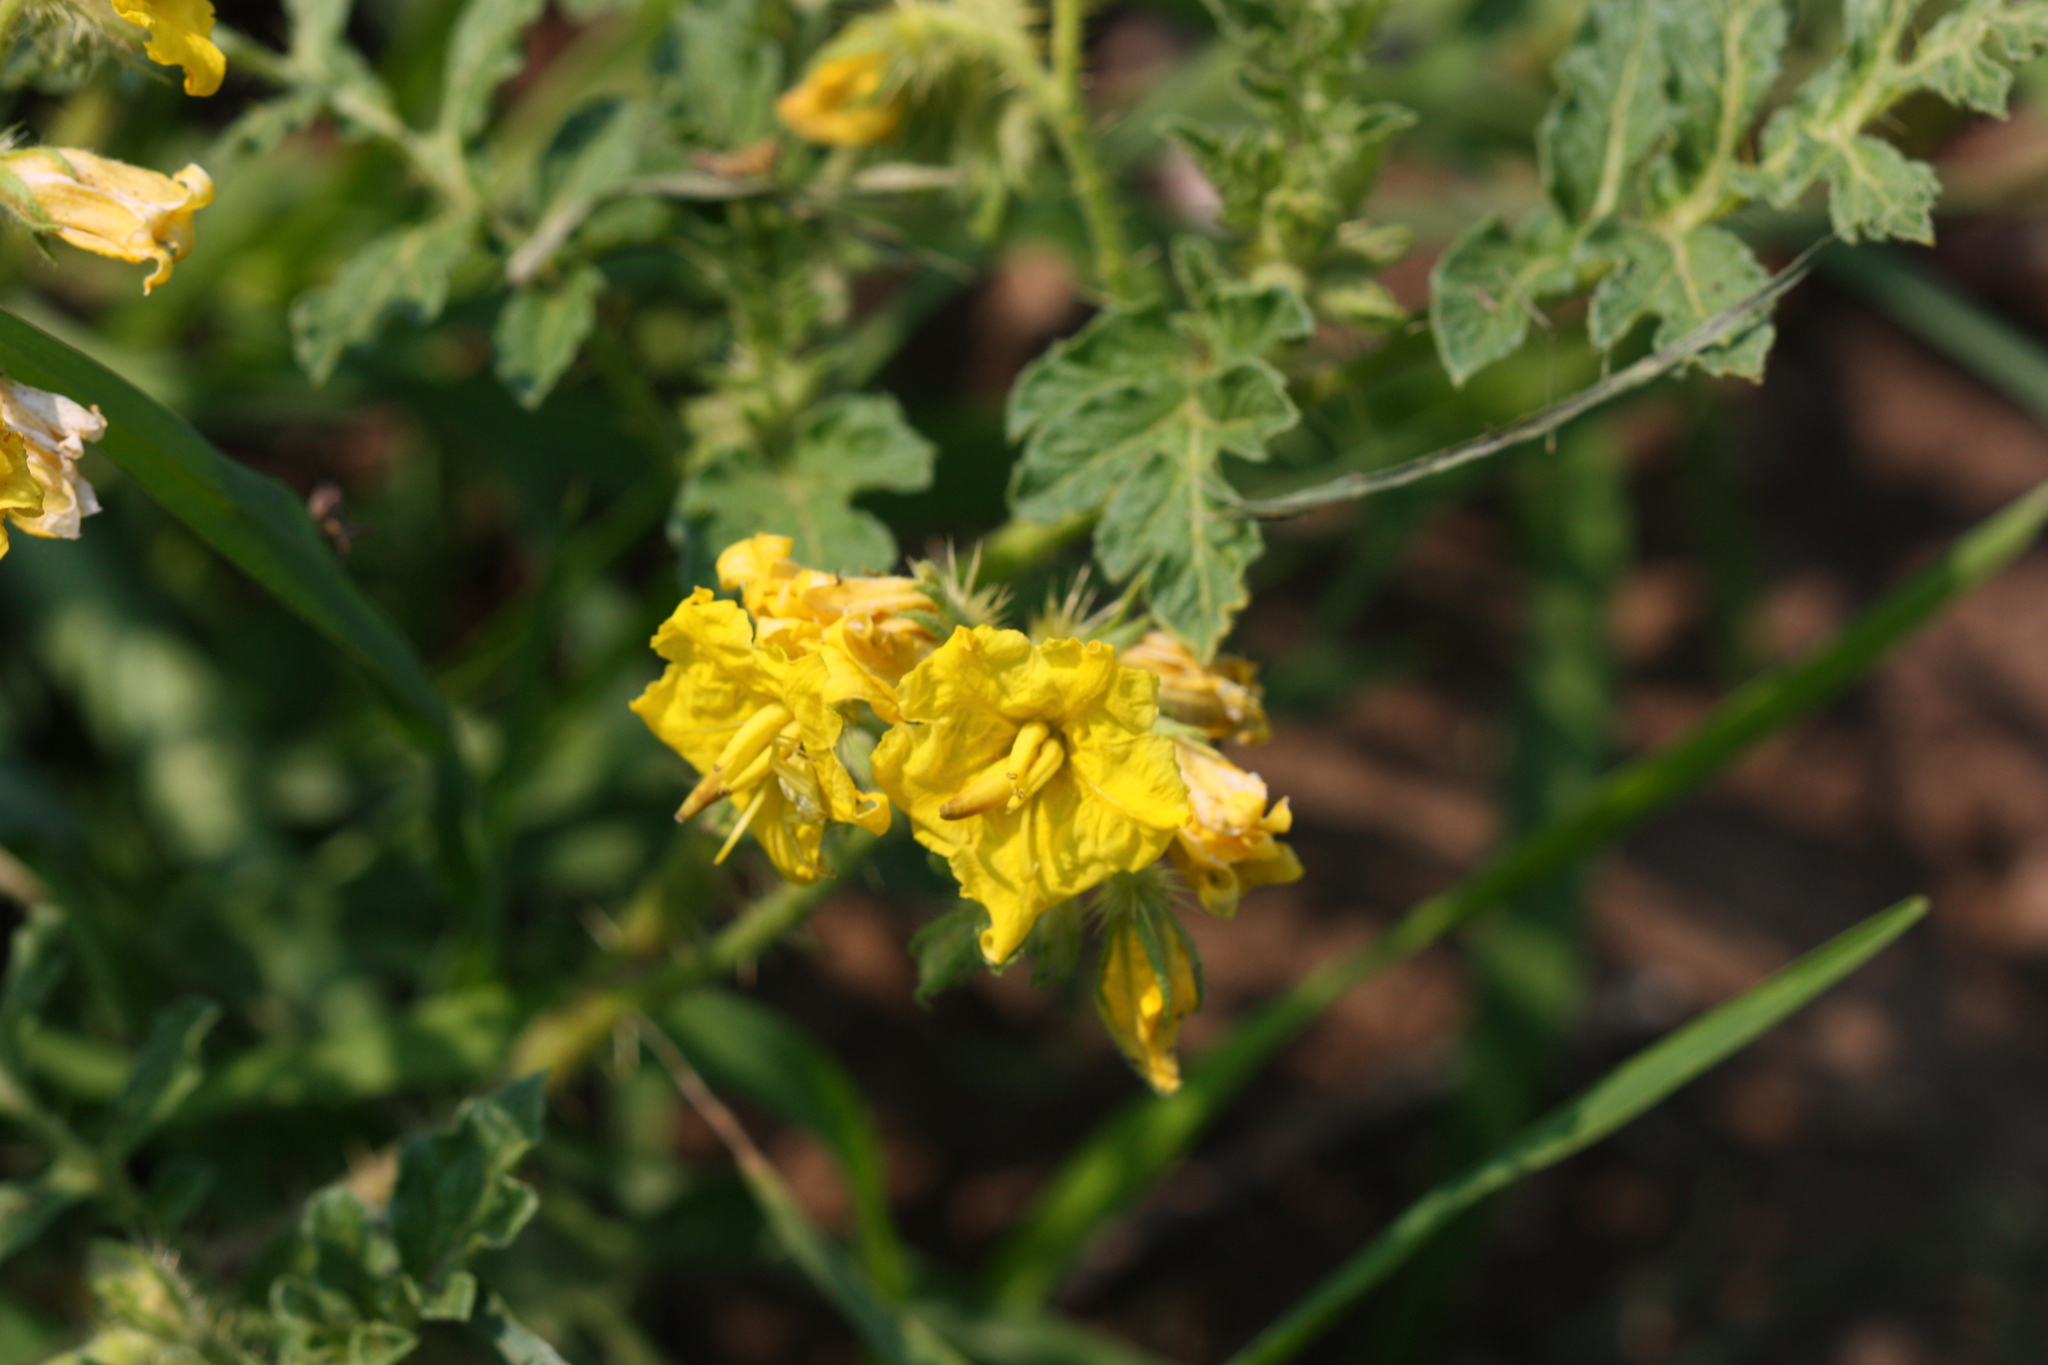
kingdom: Plantae
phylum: Tracheophyta
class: Magnoliopsida
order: Solanales
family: Solanaceae
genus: Solanum
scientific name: Solanum angustifolium
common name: Buffalobur nightshade
